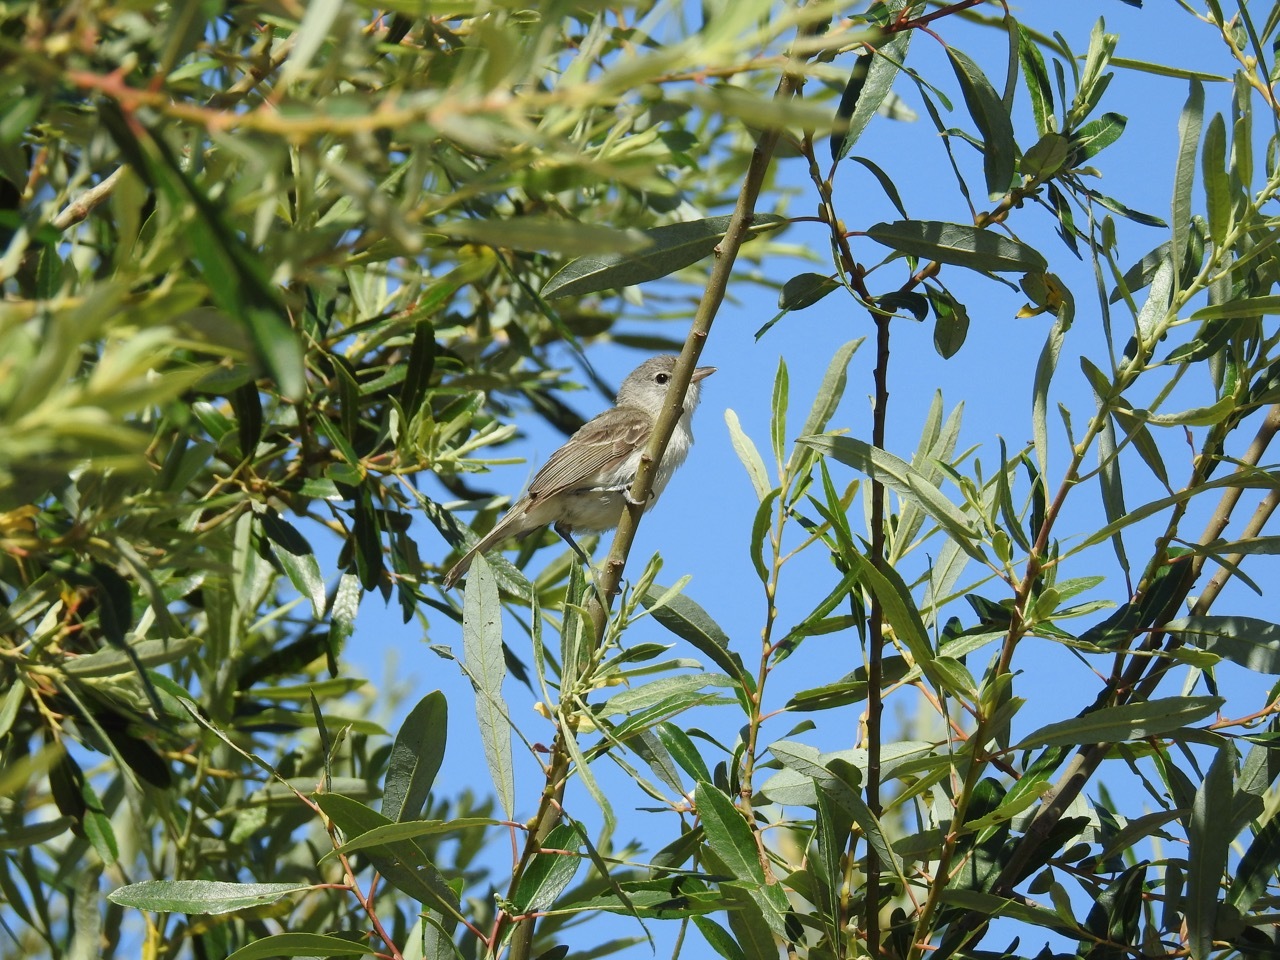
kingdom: Animalia
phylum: Chordata
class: Aves
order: Passeriformes
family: Vireonidae
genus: Vireo
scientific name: Vireo bellii
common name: Bell's vireo
